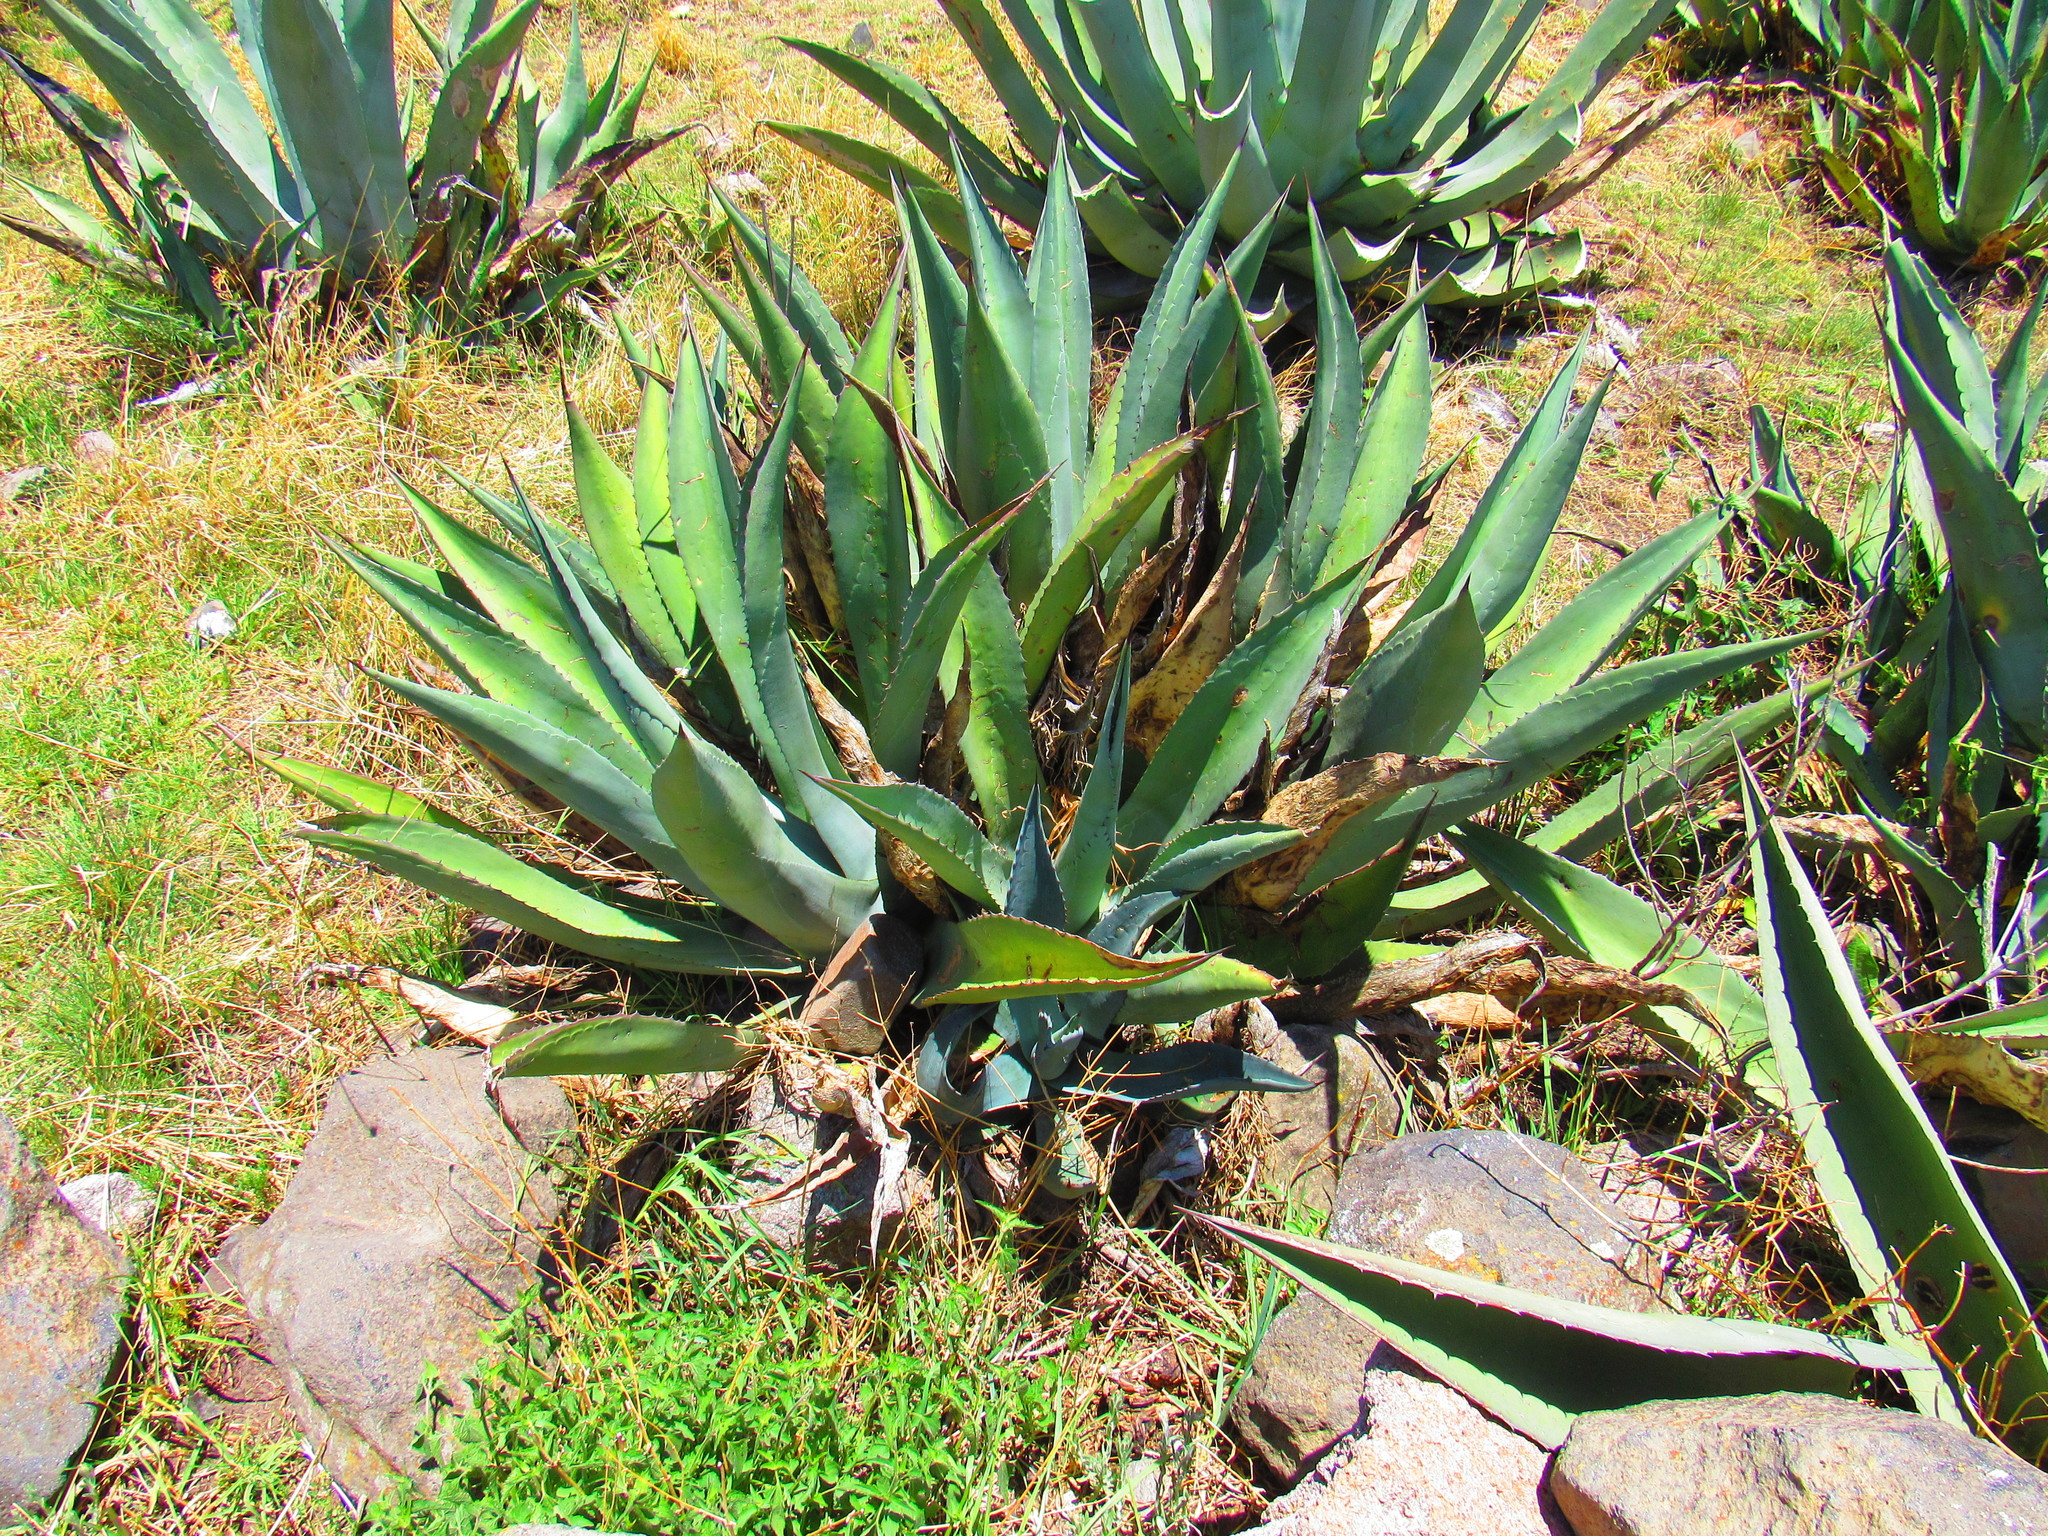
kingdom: Plantae
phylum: Tracheophyta
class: Liliopsida
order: Asparagales
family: Asparagaceae
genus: Agave
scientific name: Agave americana
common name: Centuryplant
